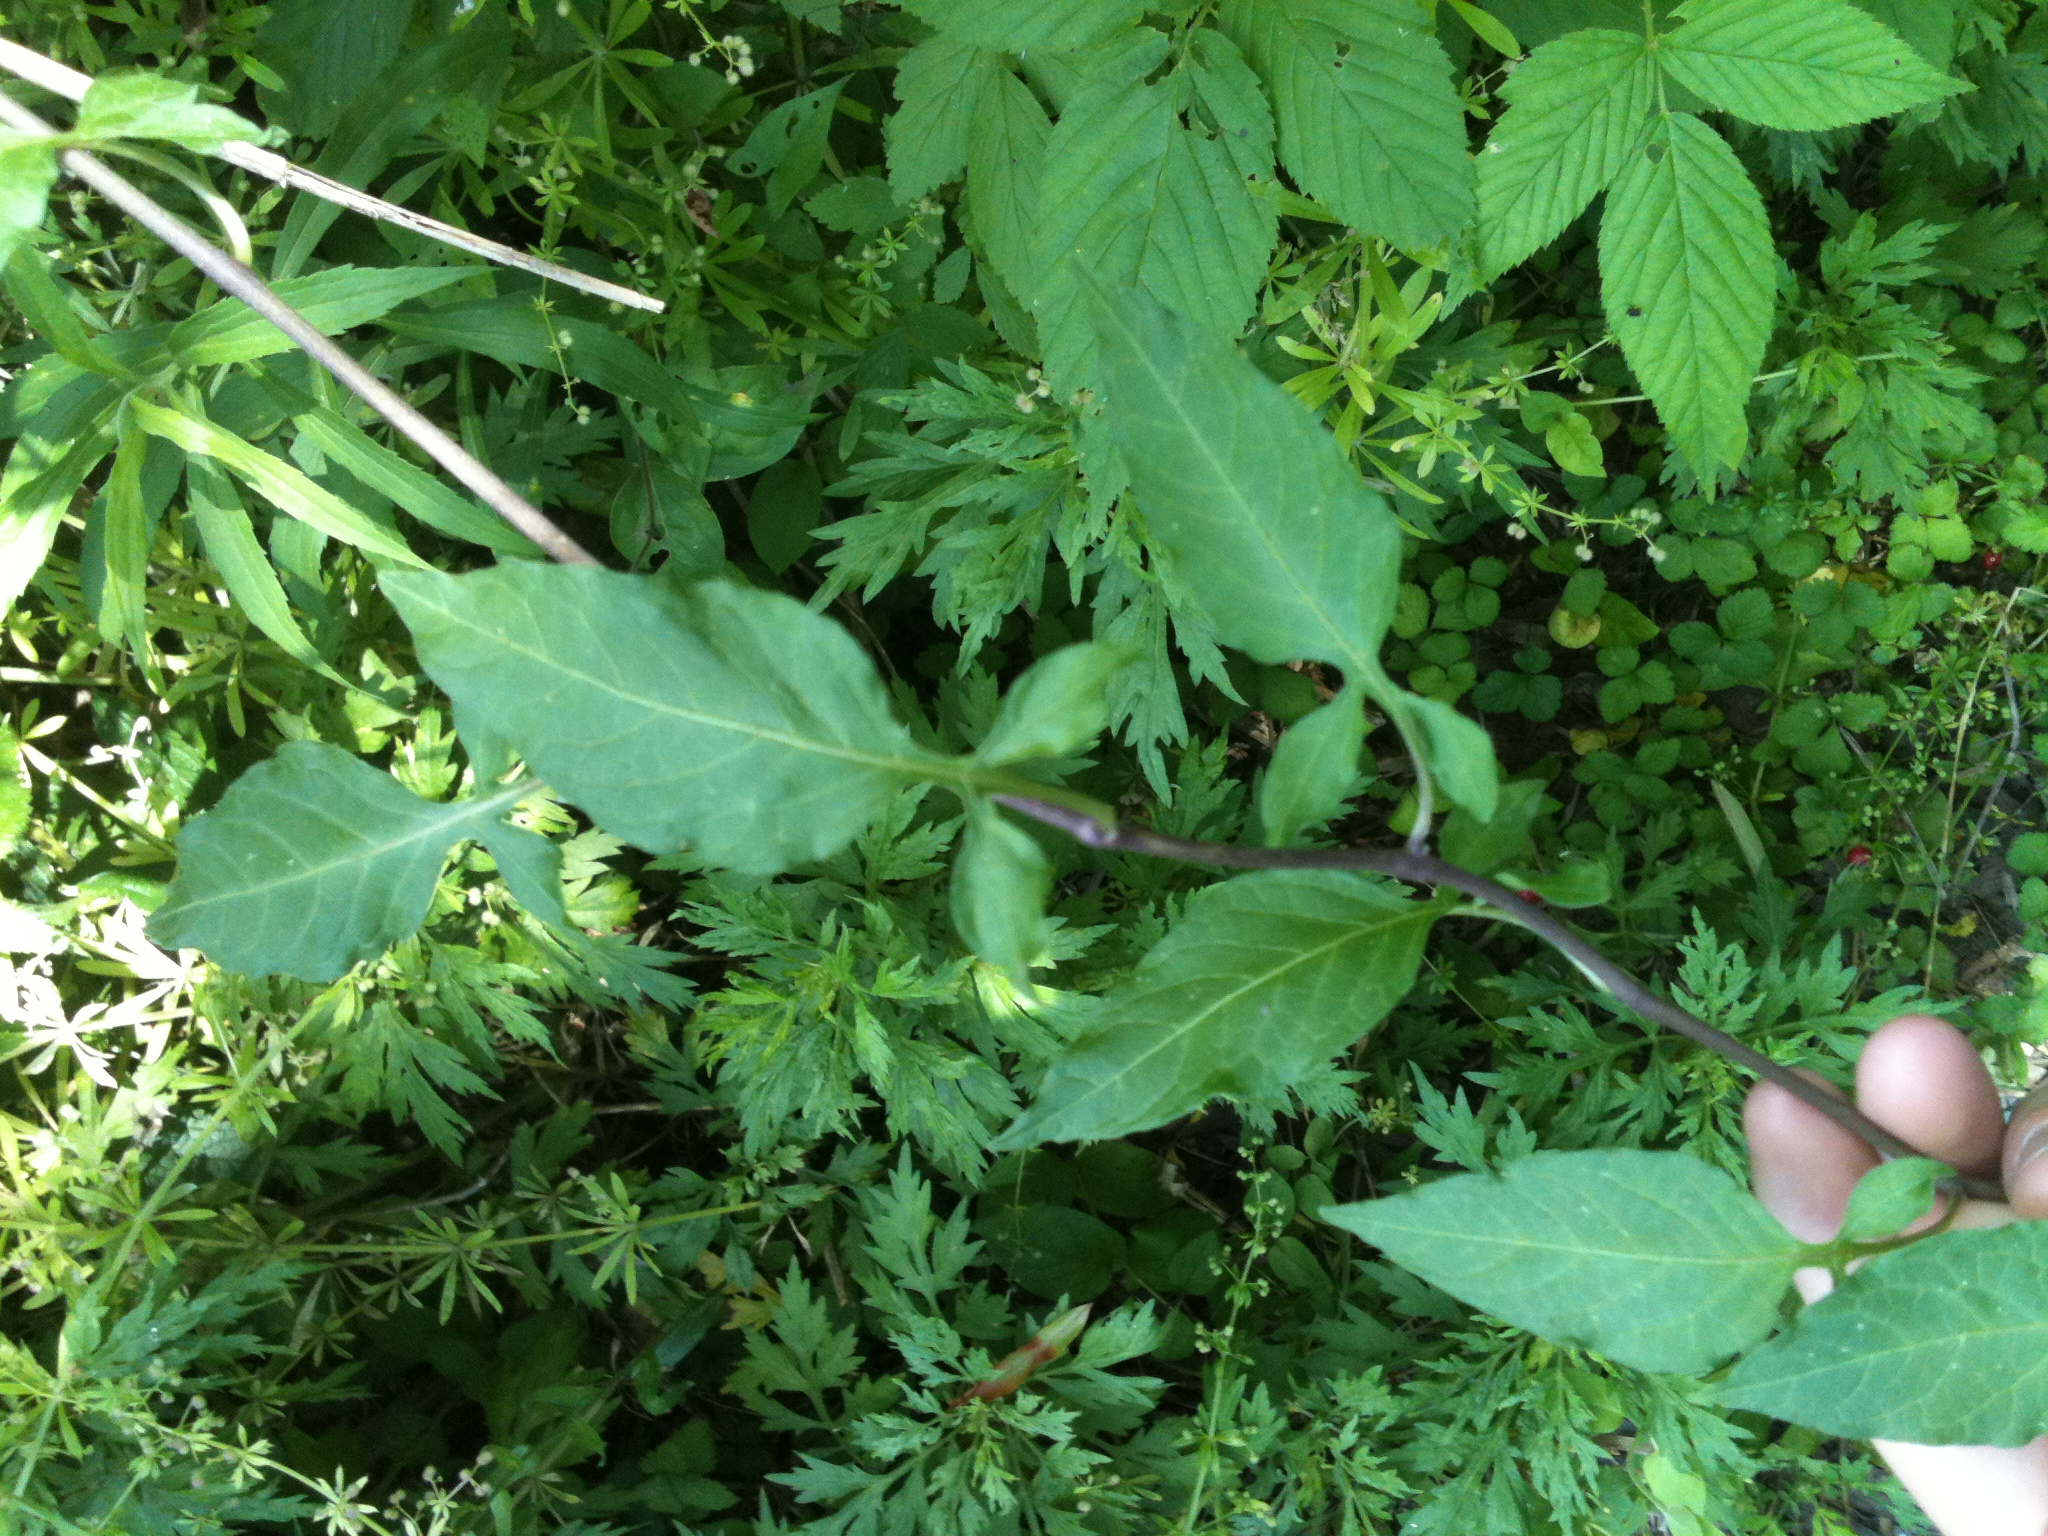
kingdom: Plantae
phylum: Tracheophyta
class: Magnoliopsida
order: Solanales
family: Solanaceae
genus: Solanum
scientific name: Solanum dulcamara
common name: Climbing nightshade
